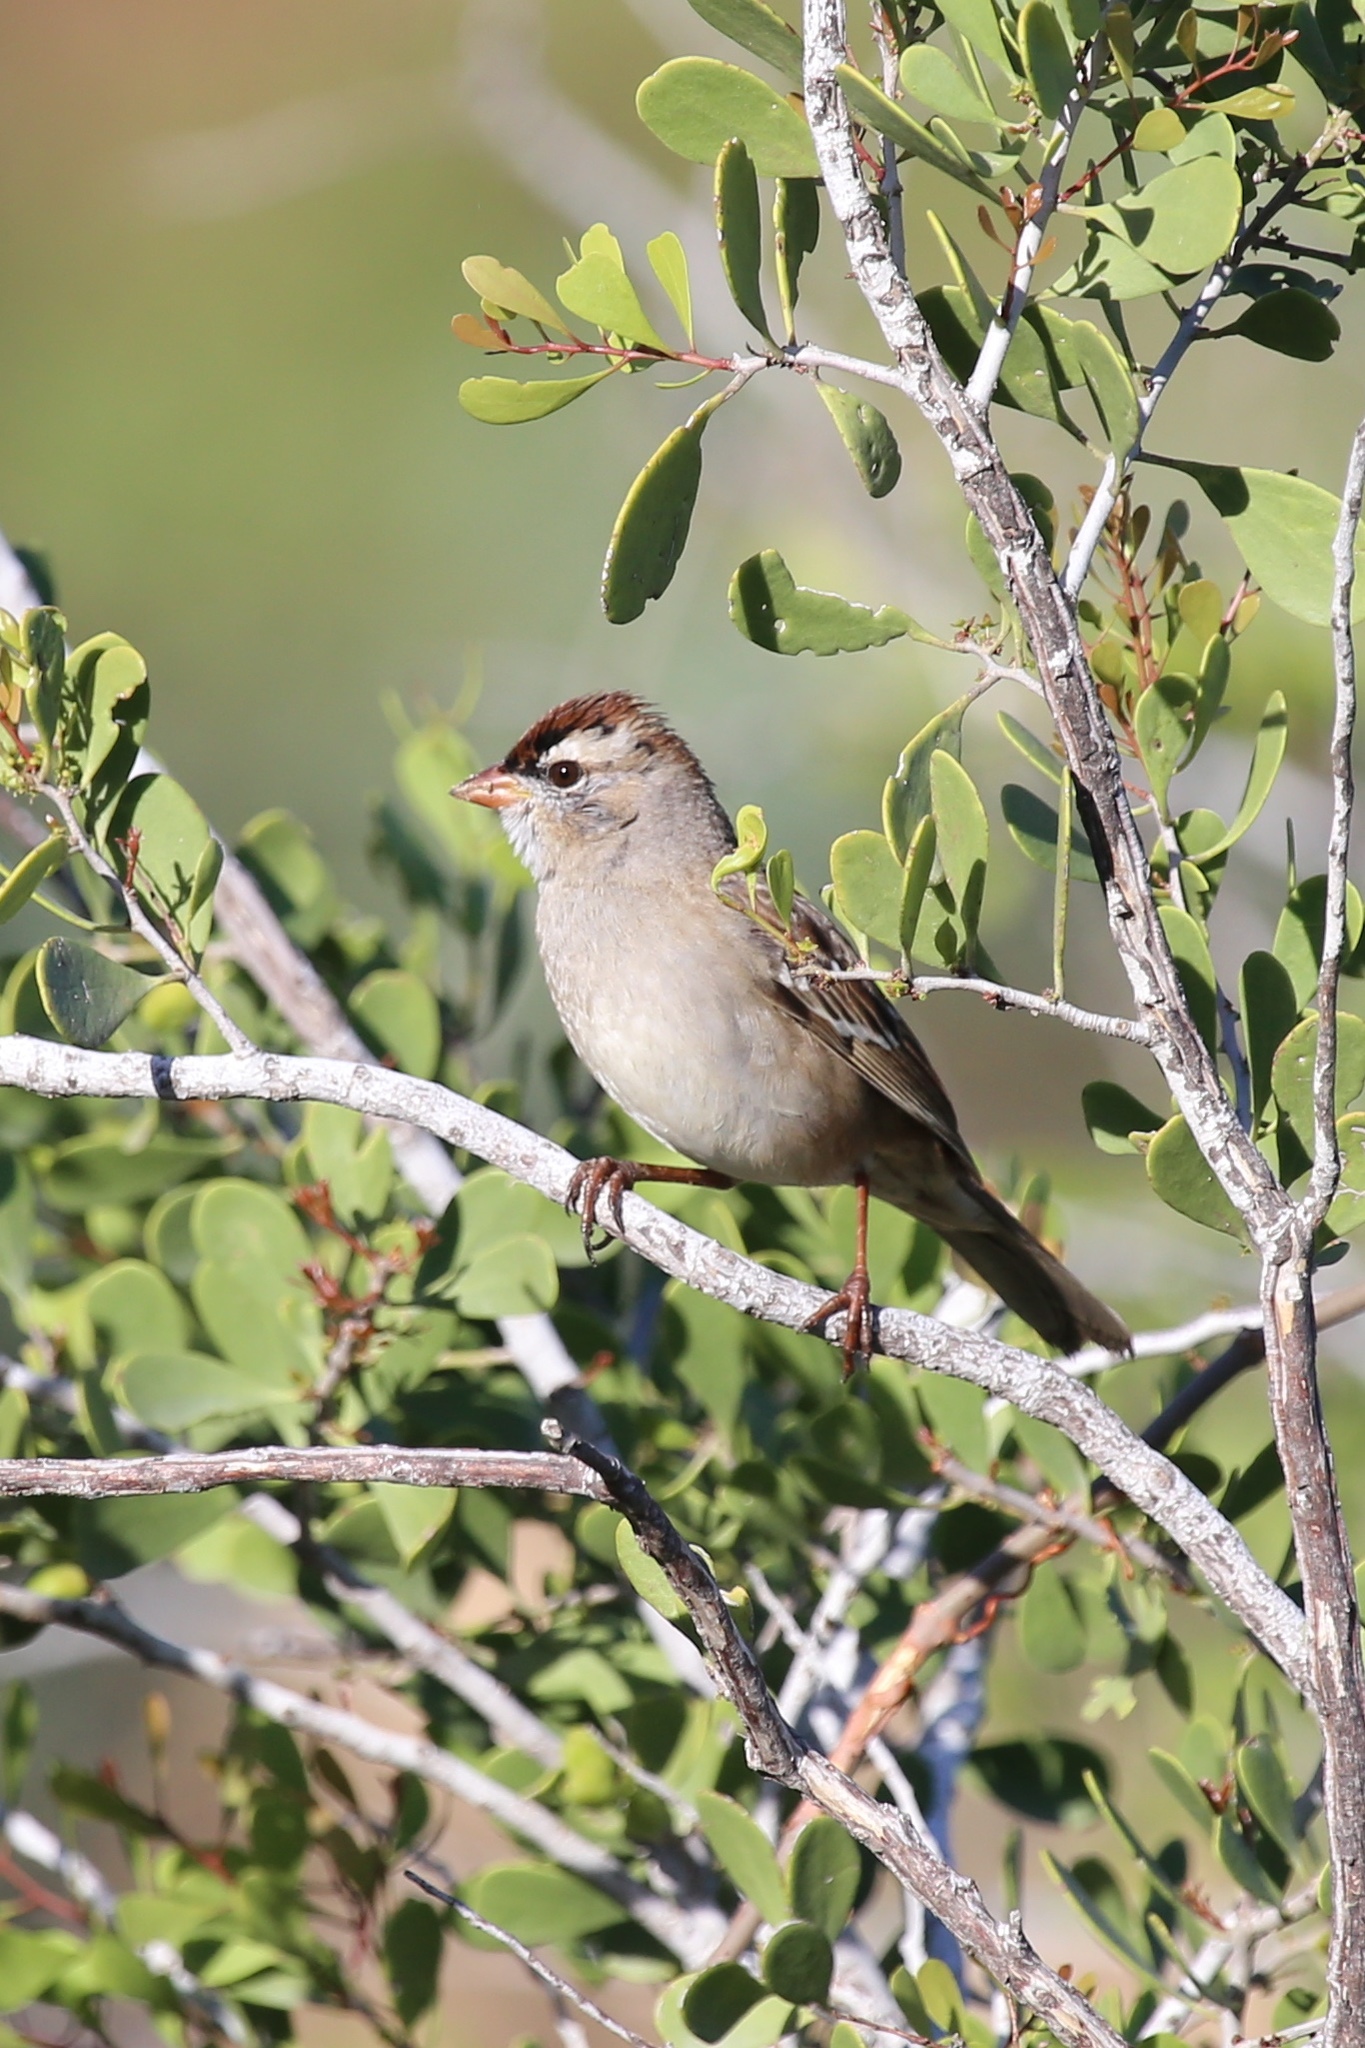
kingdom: Animalia
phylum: Chordata
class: Aves
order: Passeriformes
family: Passerellidae
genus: Zonotrichia
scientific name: Zonotrichia leucophrys
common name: White-crowned sparrow
